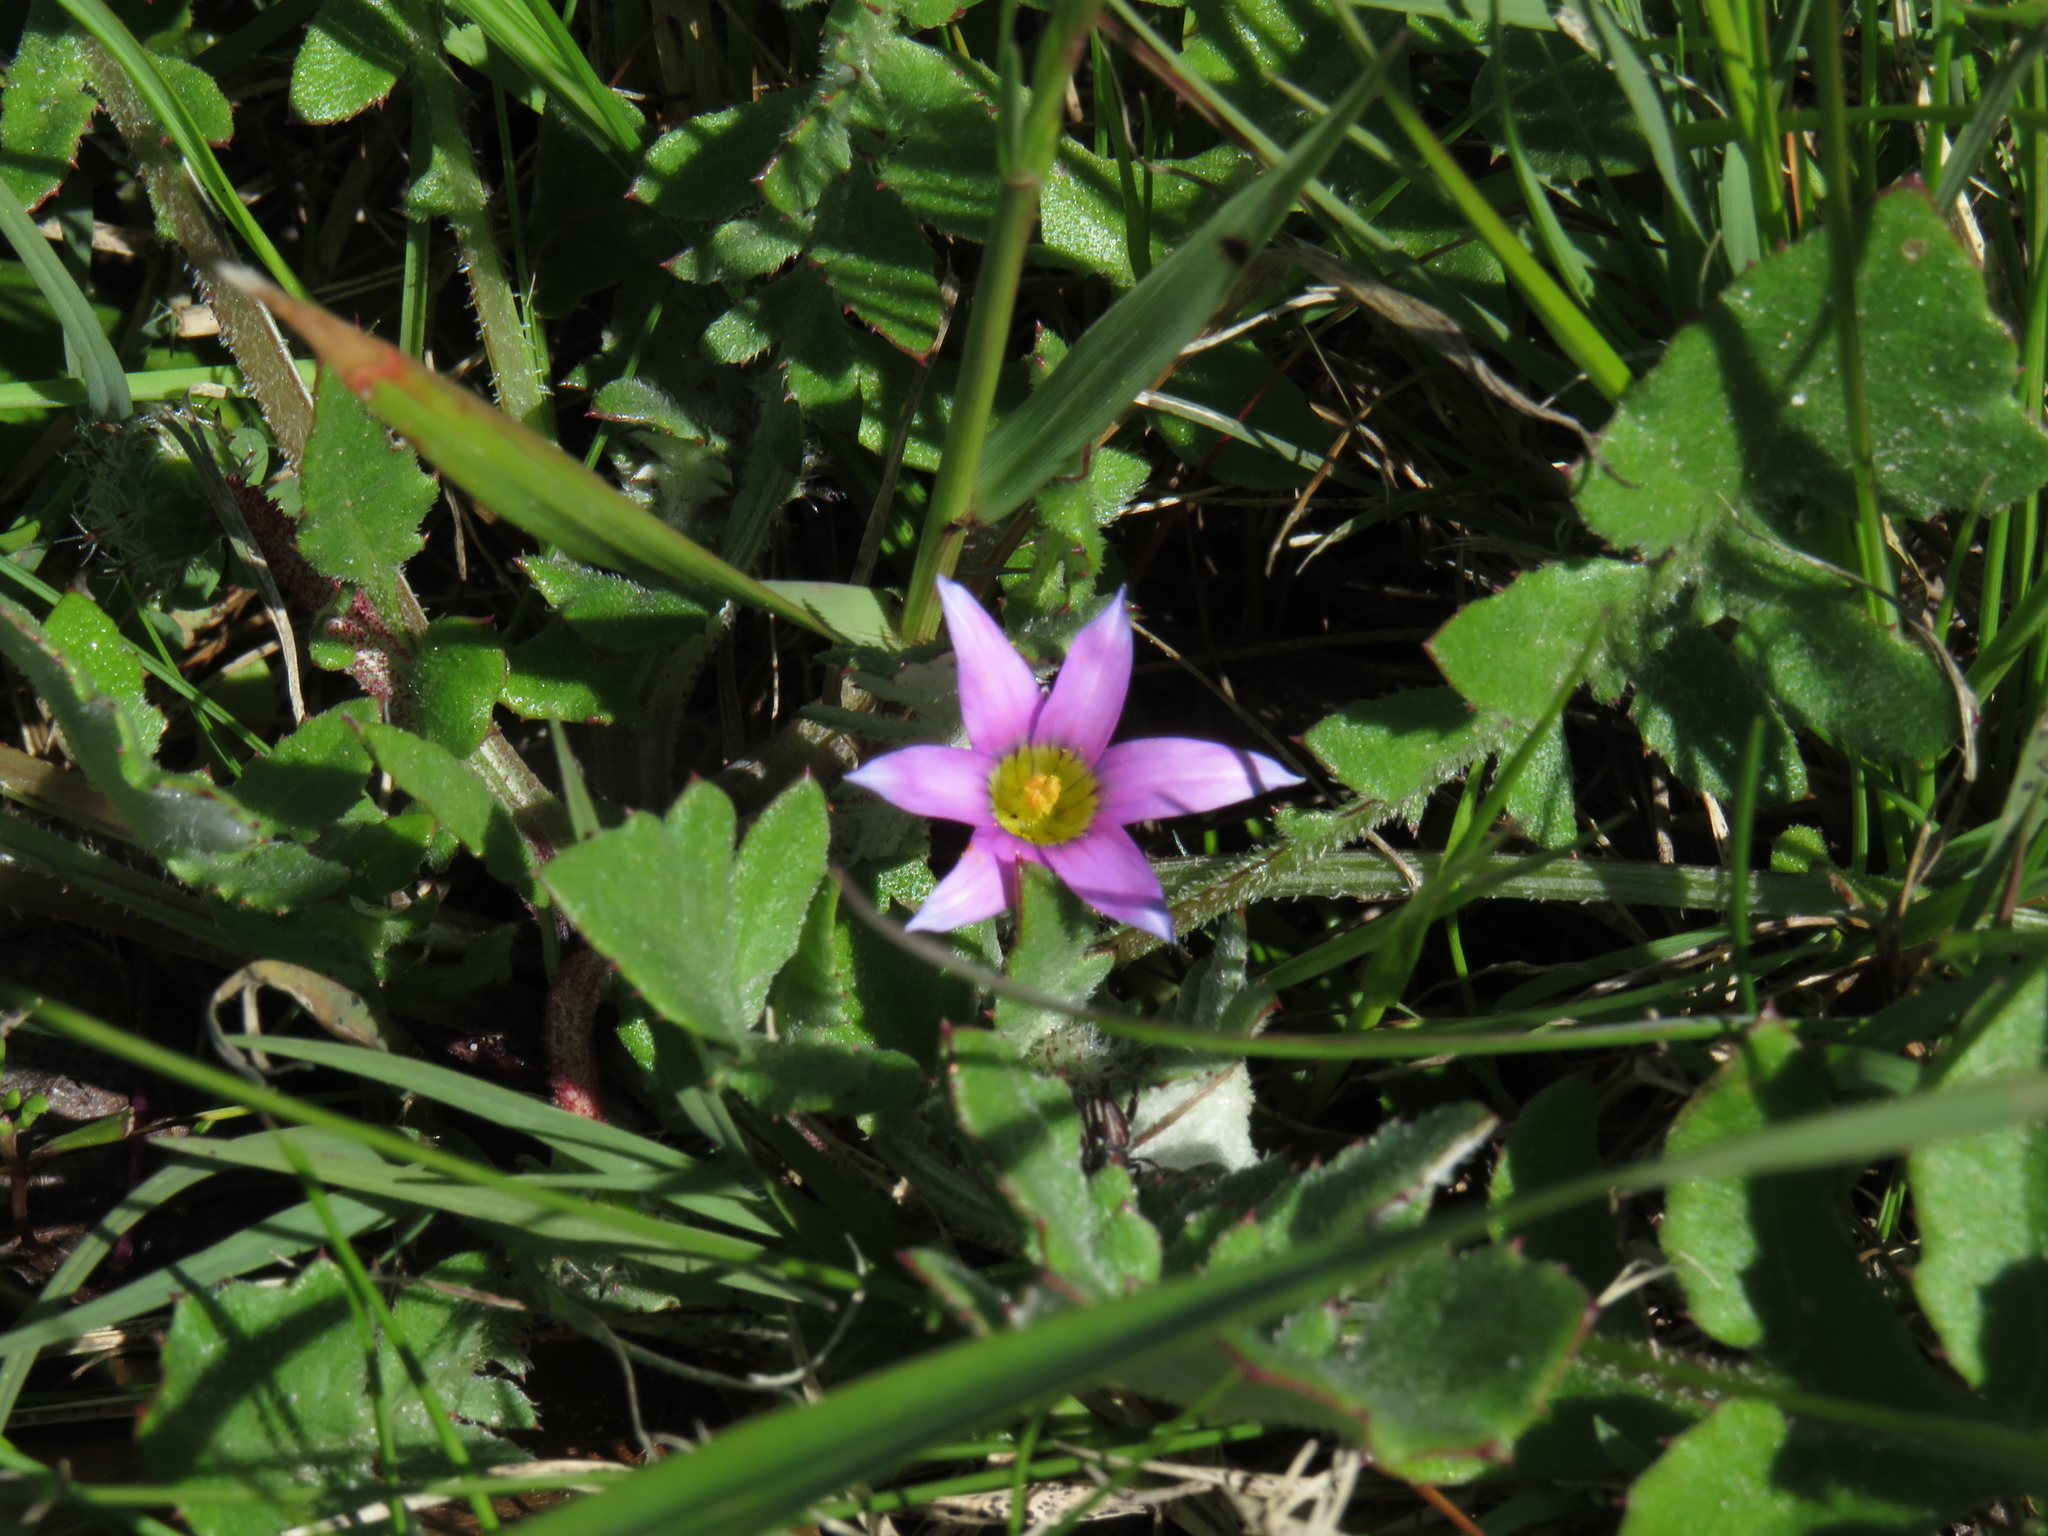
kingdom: Plantae
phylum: Tracheophyta
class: Liliopsida
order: Asparagales
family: Iridaceae
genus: Romulea
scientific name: Romulea rosea
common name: Oniongrass
